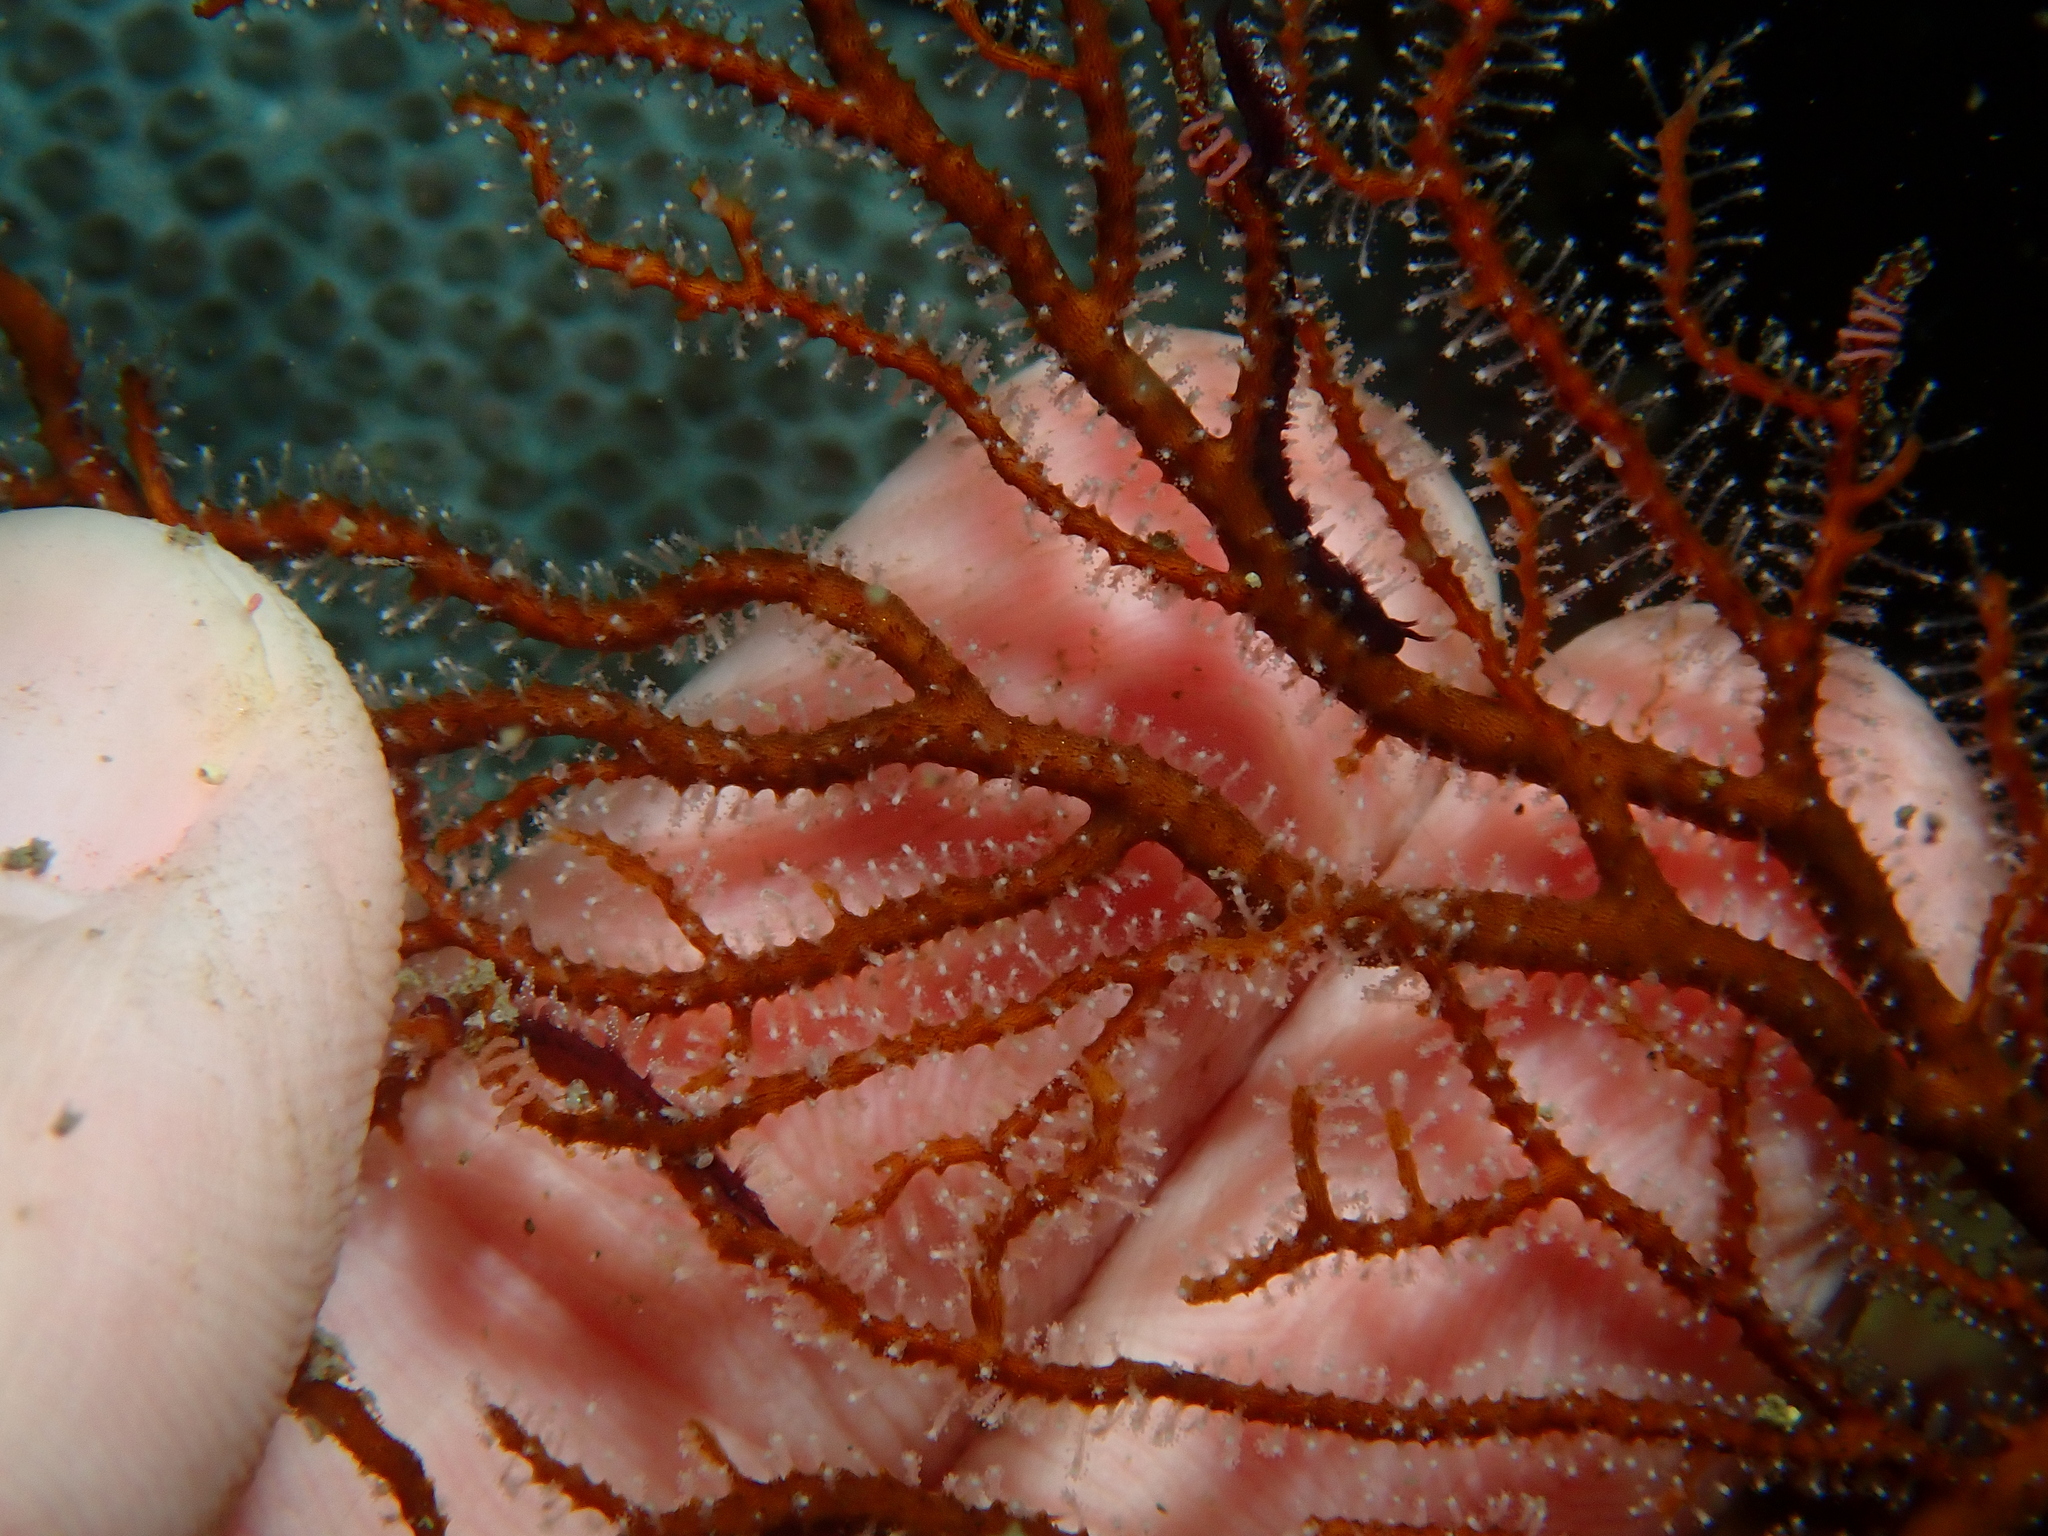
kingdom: Animalia
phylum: Mollusca
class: Gastropoda
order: Nudibranchia
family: Pleurolidiidae
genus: Pleurolidia
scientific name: Pleurolidia juliae
